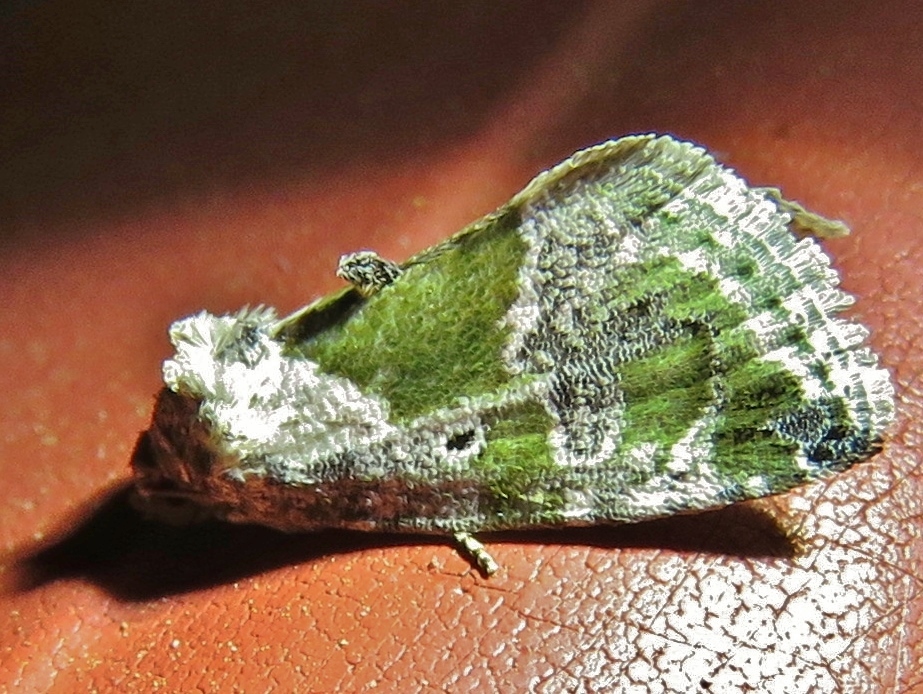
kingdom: Animalia
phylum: Arthropoda
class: Insecta
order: Lepidoptera
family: Noctuidae
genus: Maliattha
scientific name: Maliattha synochitis
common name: Black-dotted glyph
